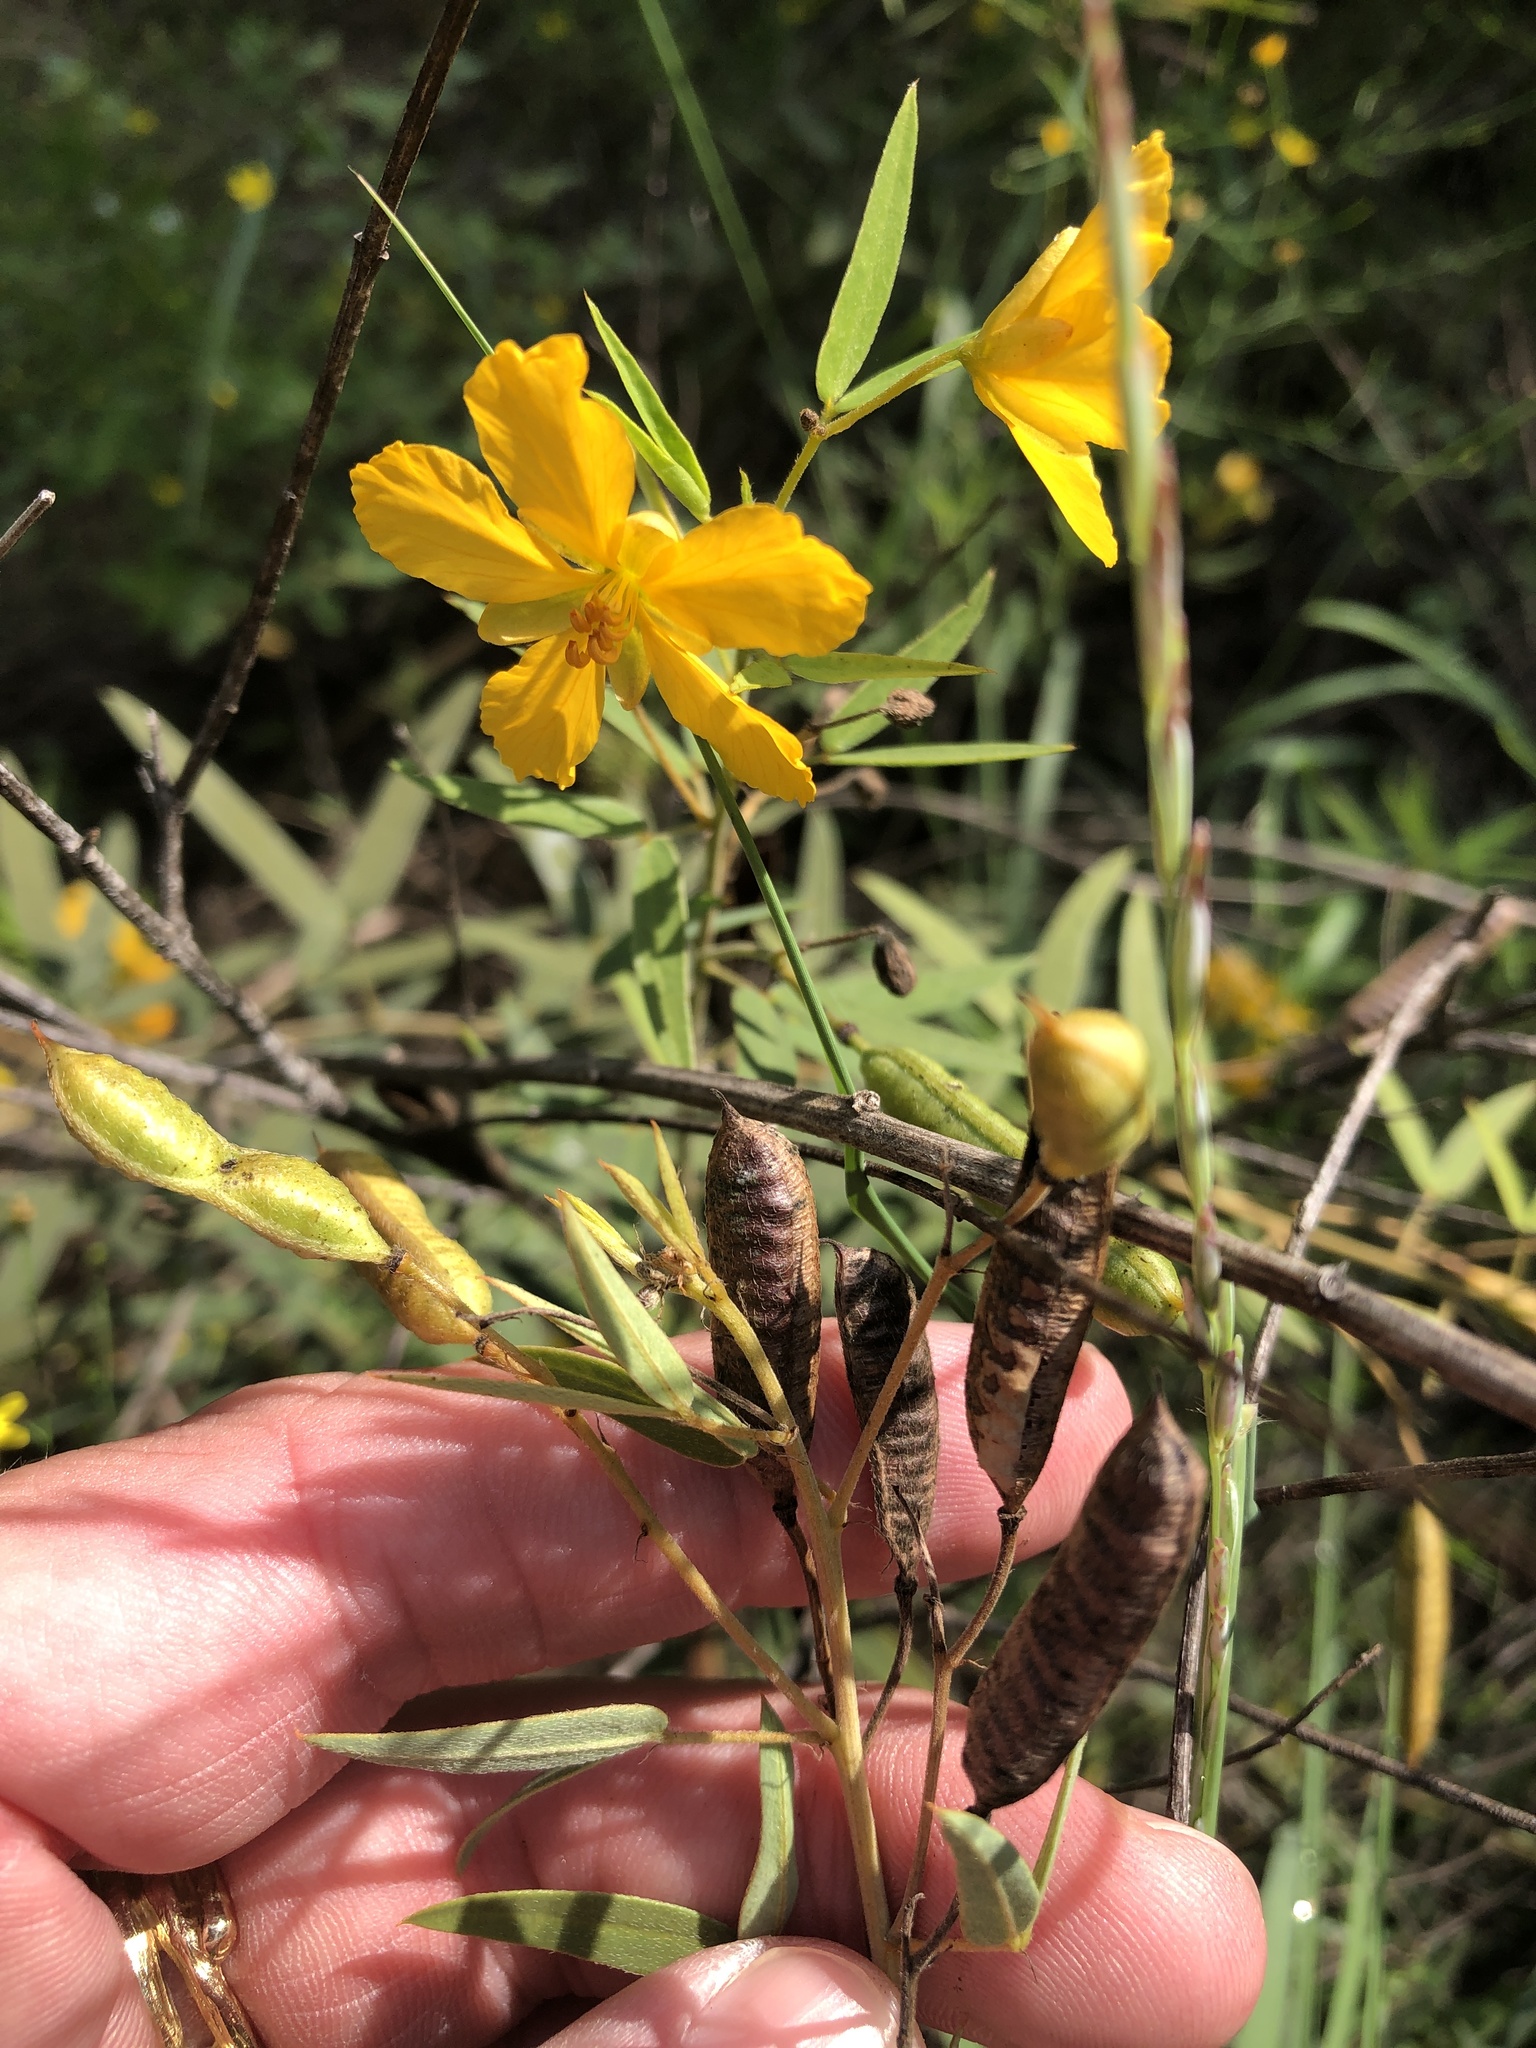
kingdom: Plantae
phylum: Tracheophyta
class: Magnoliopsida
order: Fabales
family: Fabaceae
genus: Senna
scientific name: Senna roemeriana
